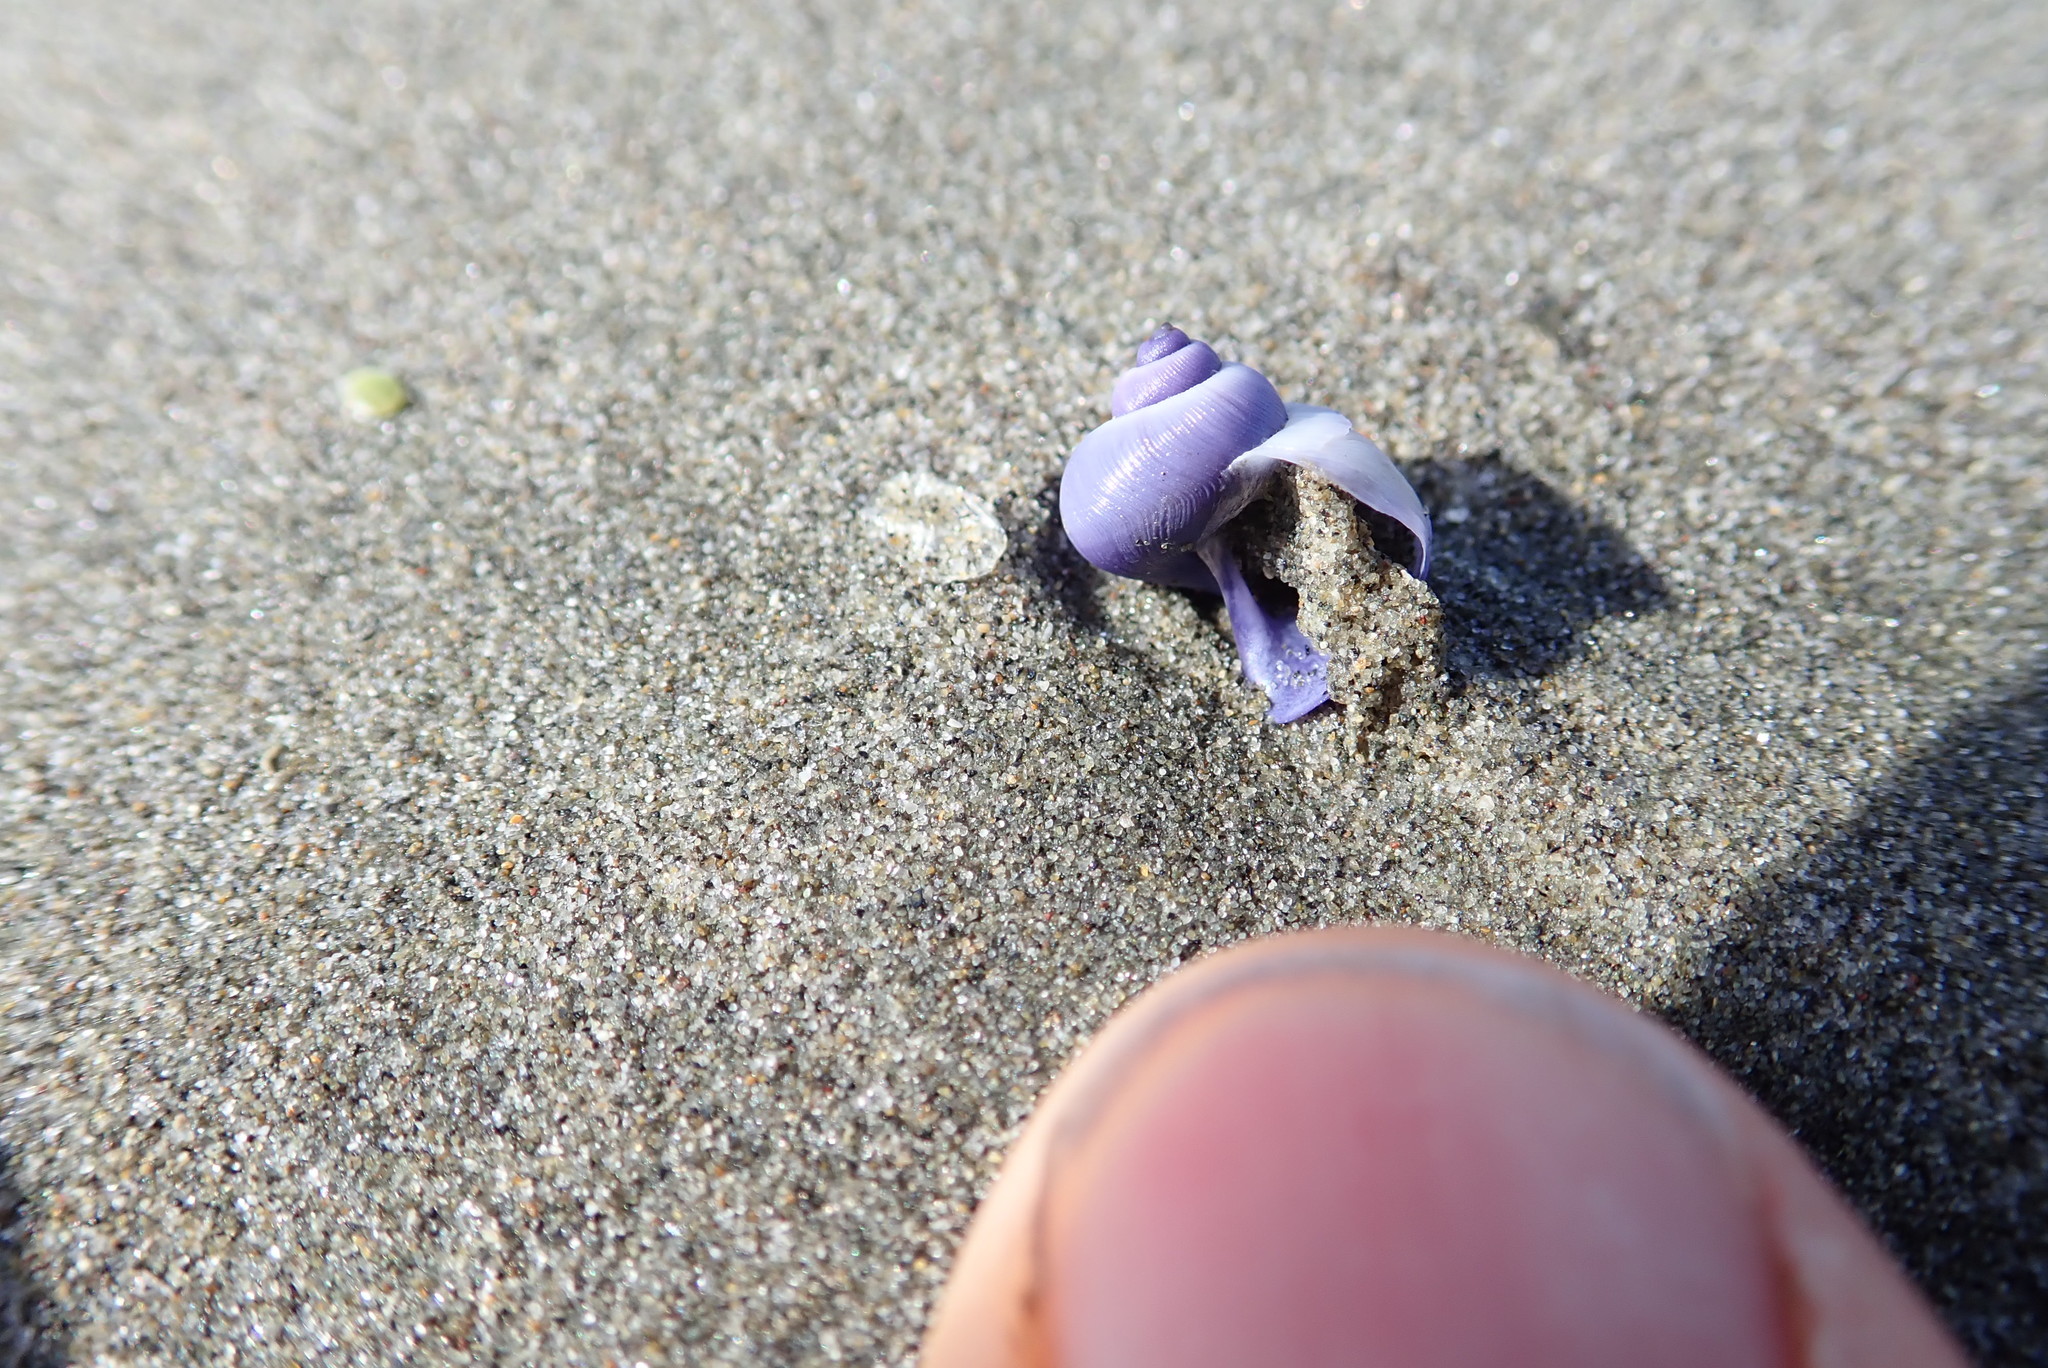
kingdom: Animalia
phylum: Mollusca
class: Gastropoda
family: Epitoniidae
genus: Janthina
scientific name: Janthina exigua
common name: Dwarf janthina
